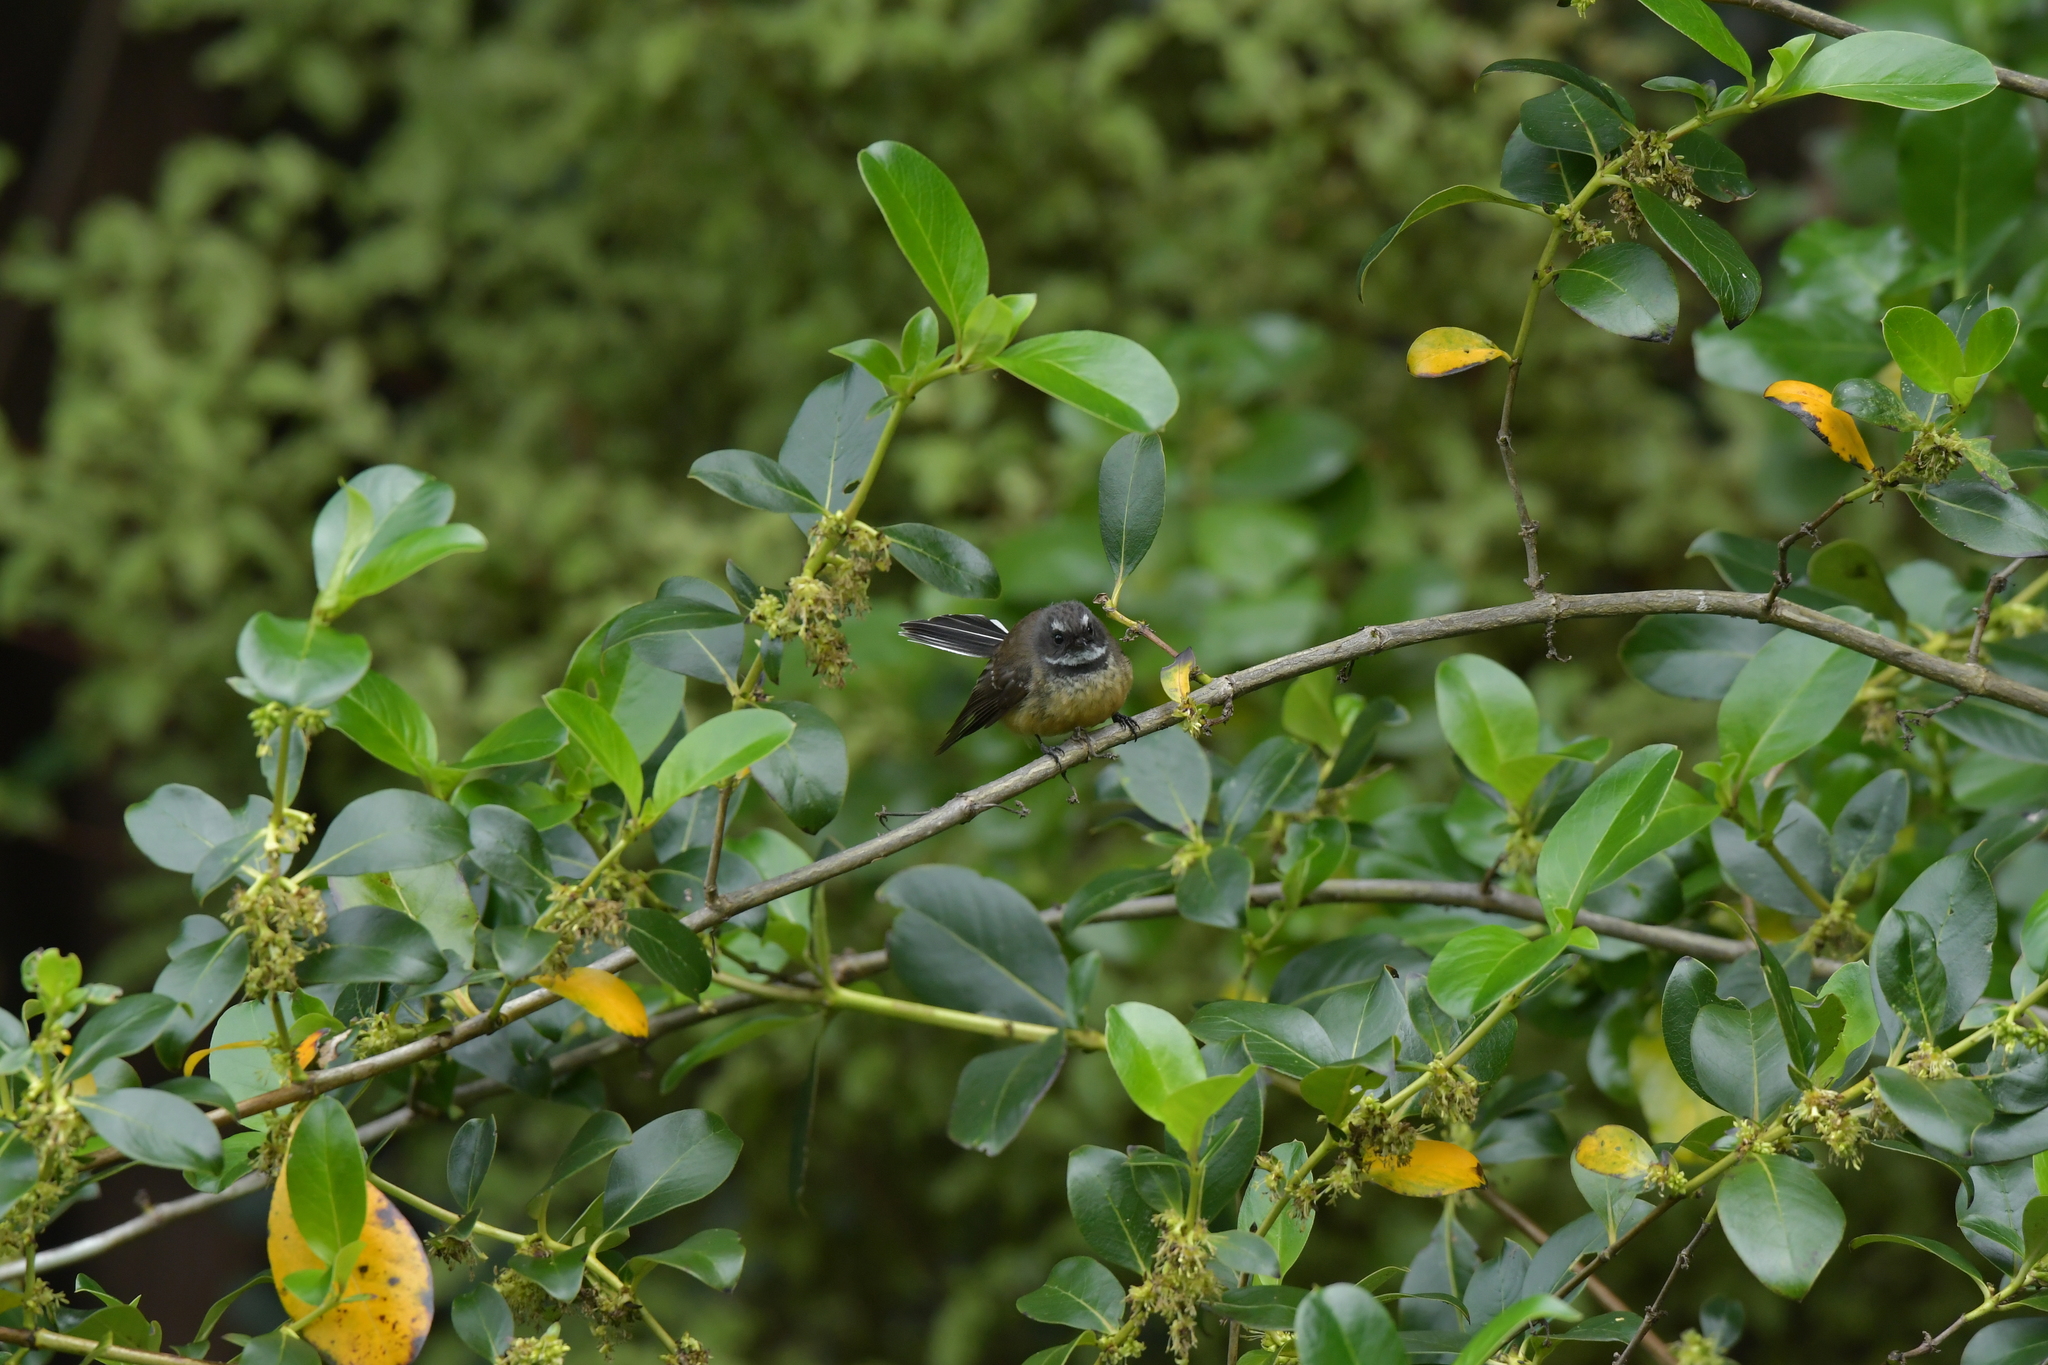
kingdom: Animalia
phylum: Chordata
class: Aves
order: Passeriformes
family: Rhipiduridae
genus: Rhipidura
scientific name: Rhipidura fuliginosa
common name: New zealand fantail
